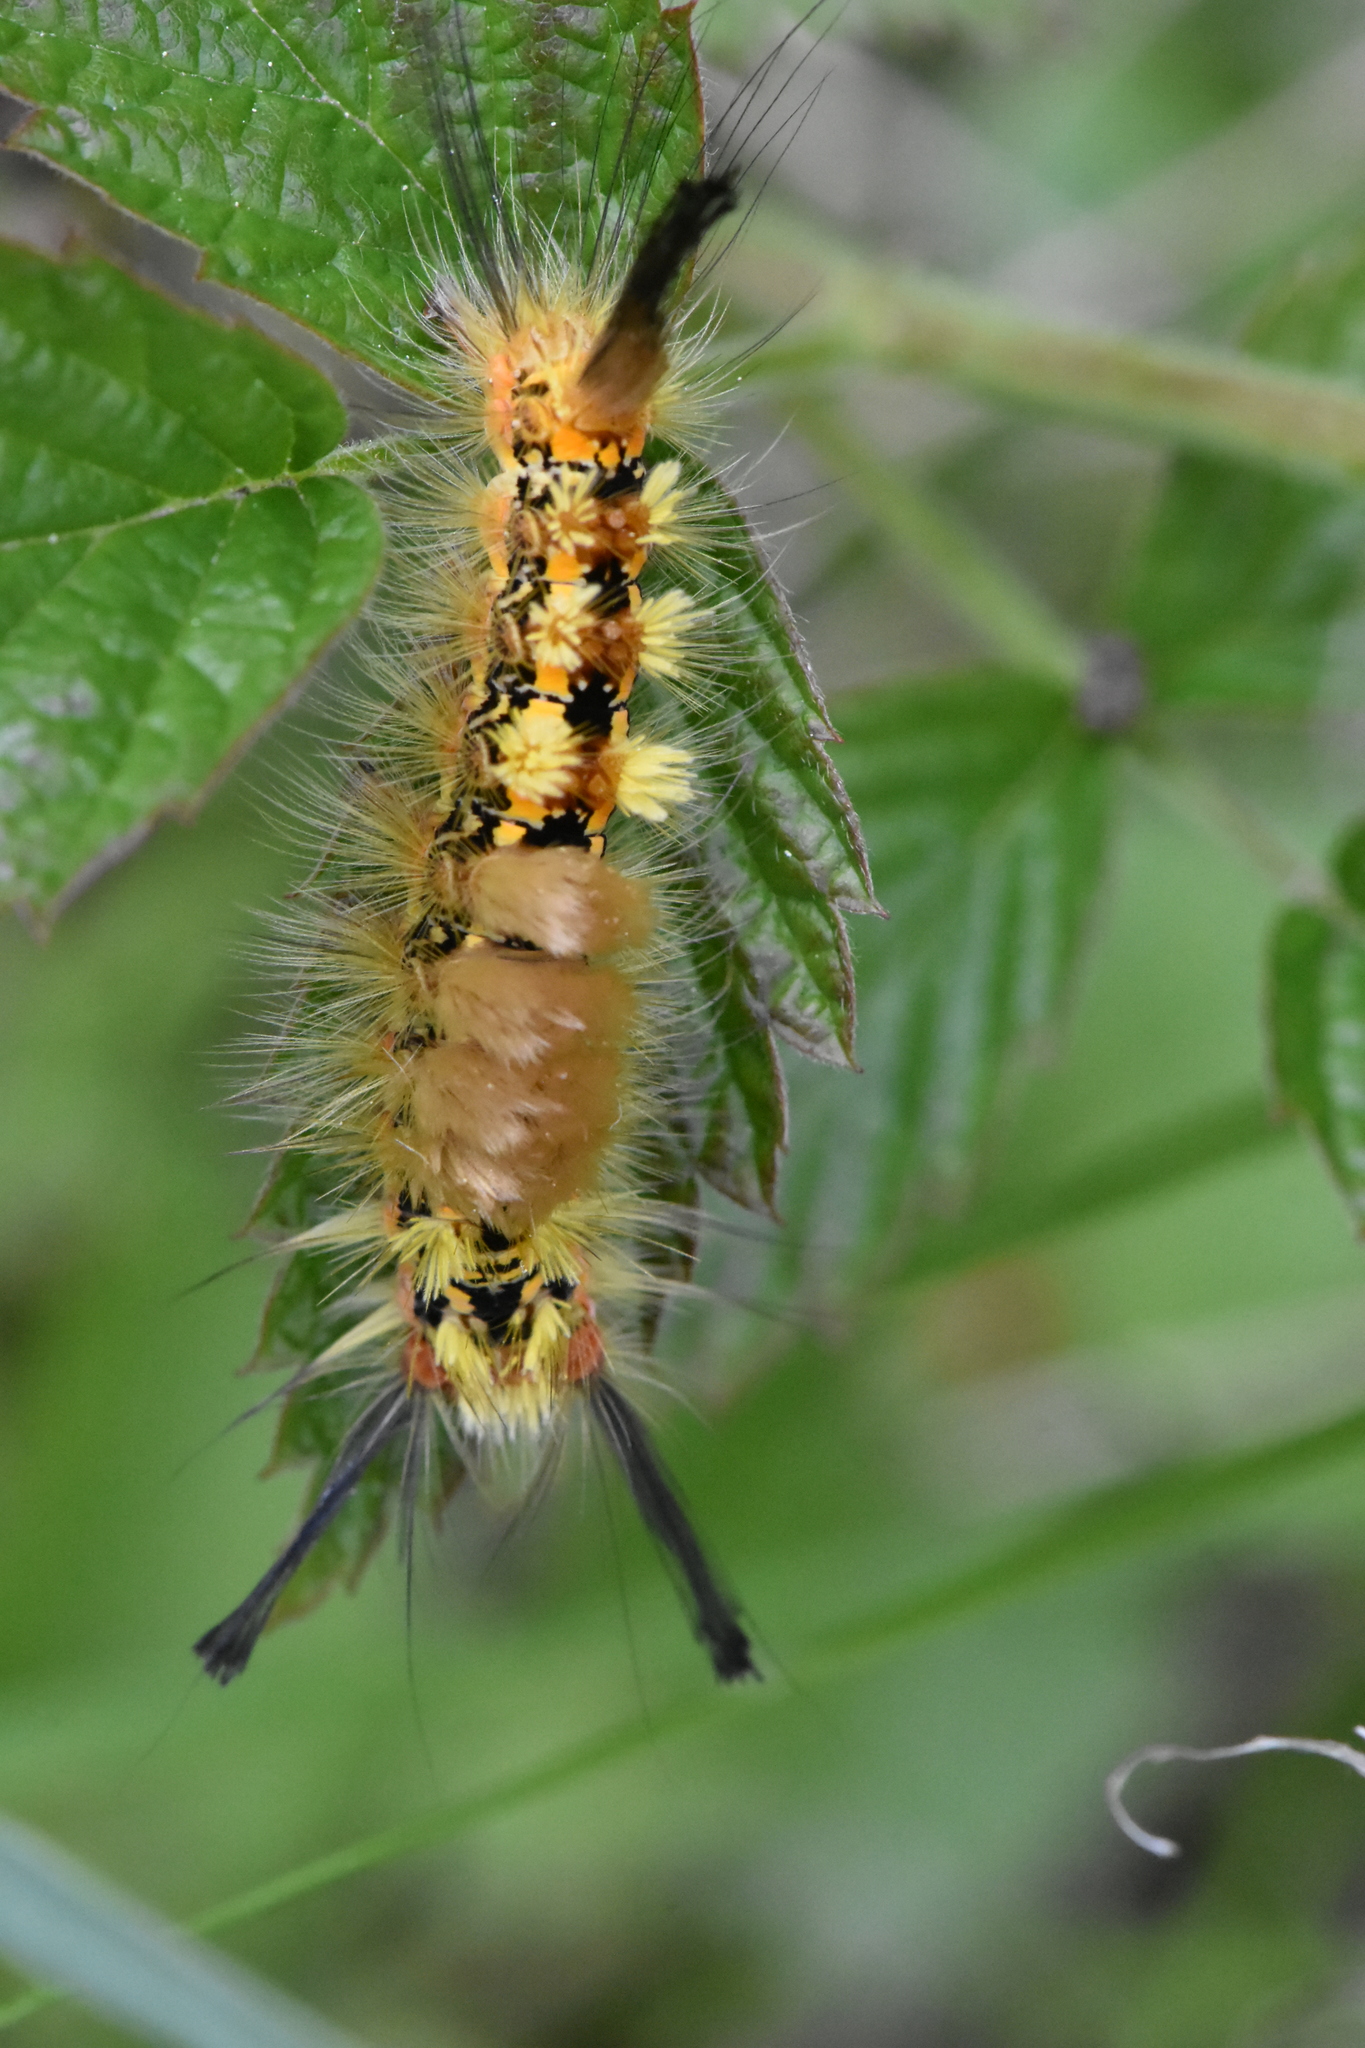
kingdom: Animalia
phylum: Arthropoda
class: Insecta
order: Lepidoptera
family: Erebidae
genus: Orgyia
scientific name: Orgyia recens
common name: Scarce vapourer
